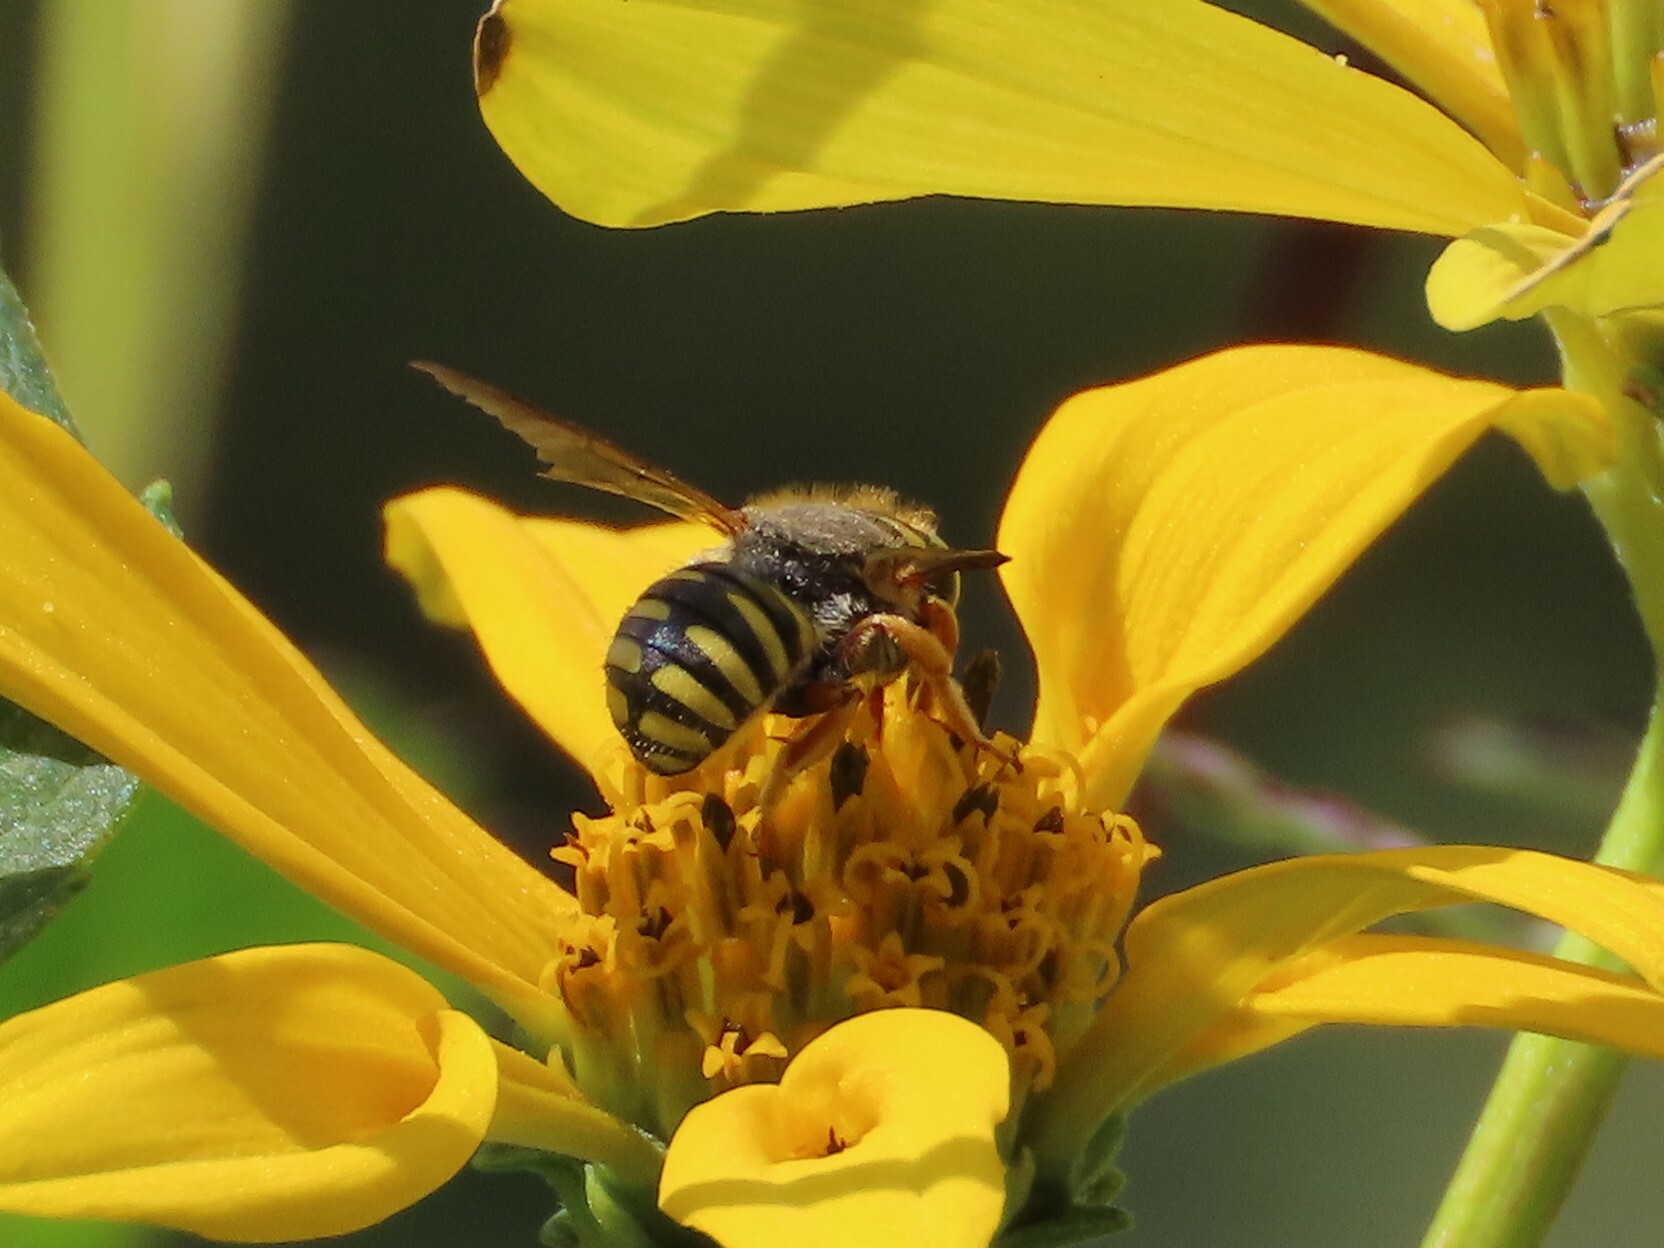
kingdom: Animalia
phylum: Arthropoda
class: Insecta
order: Hymenoptera
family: Megachilidae
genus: Anthidium
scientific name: Anthidium oblongatum
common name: Oblong wool carder bee
